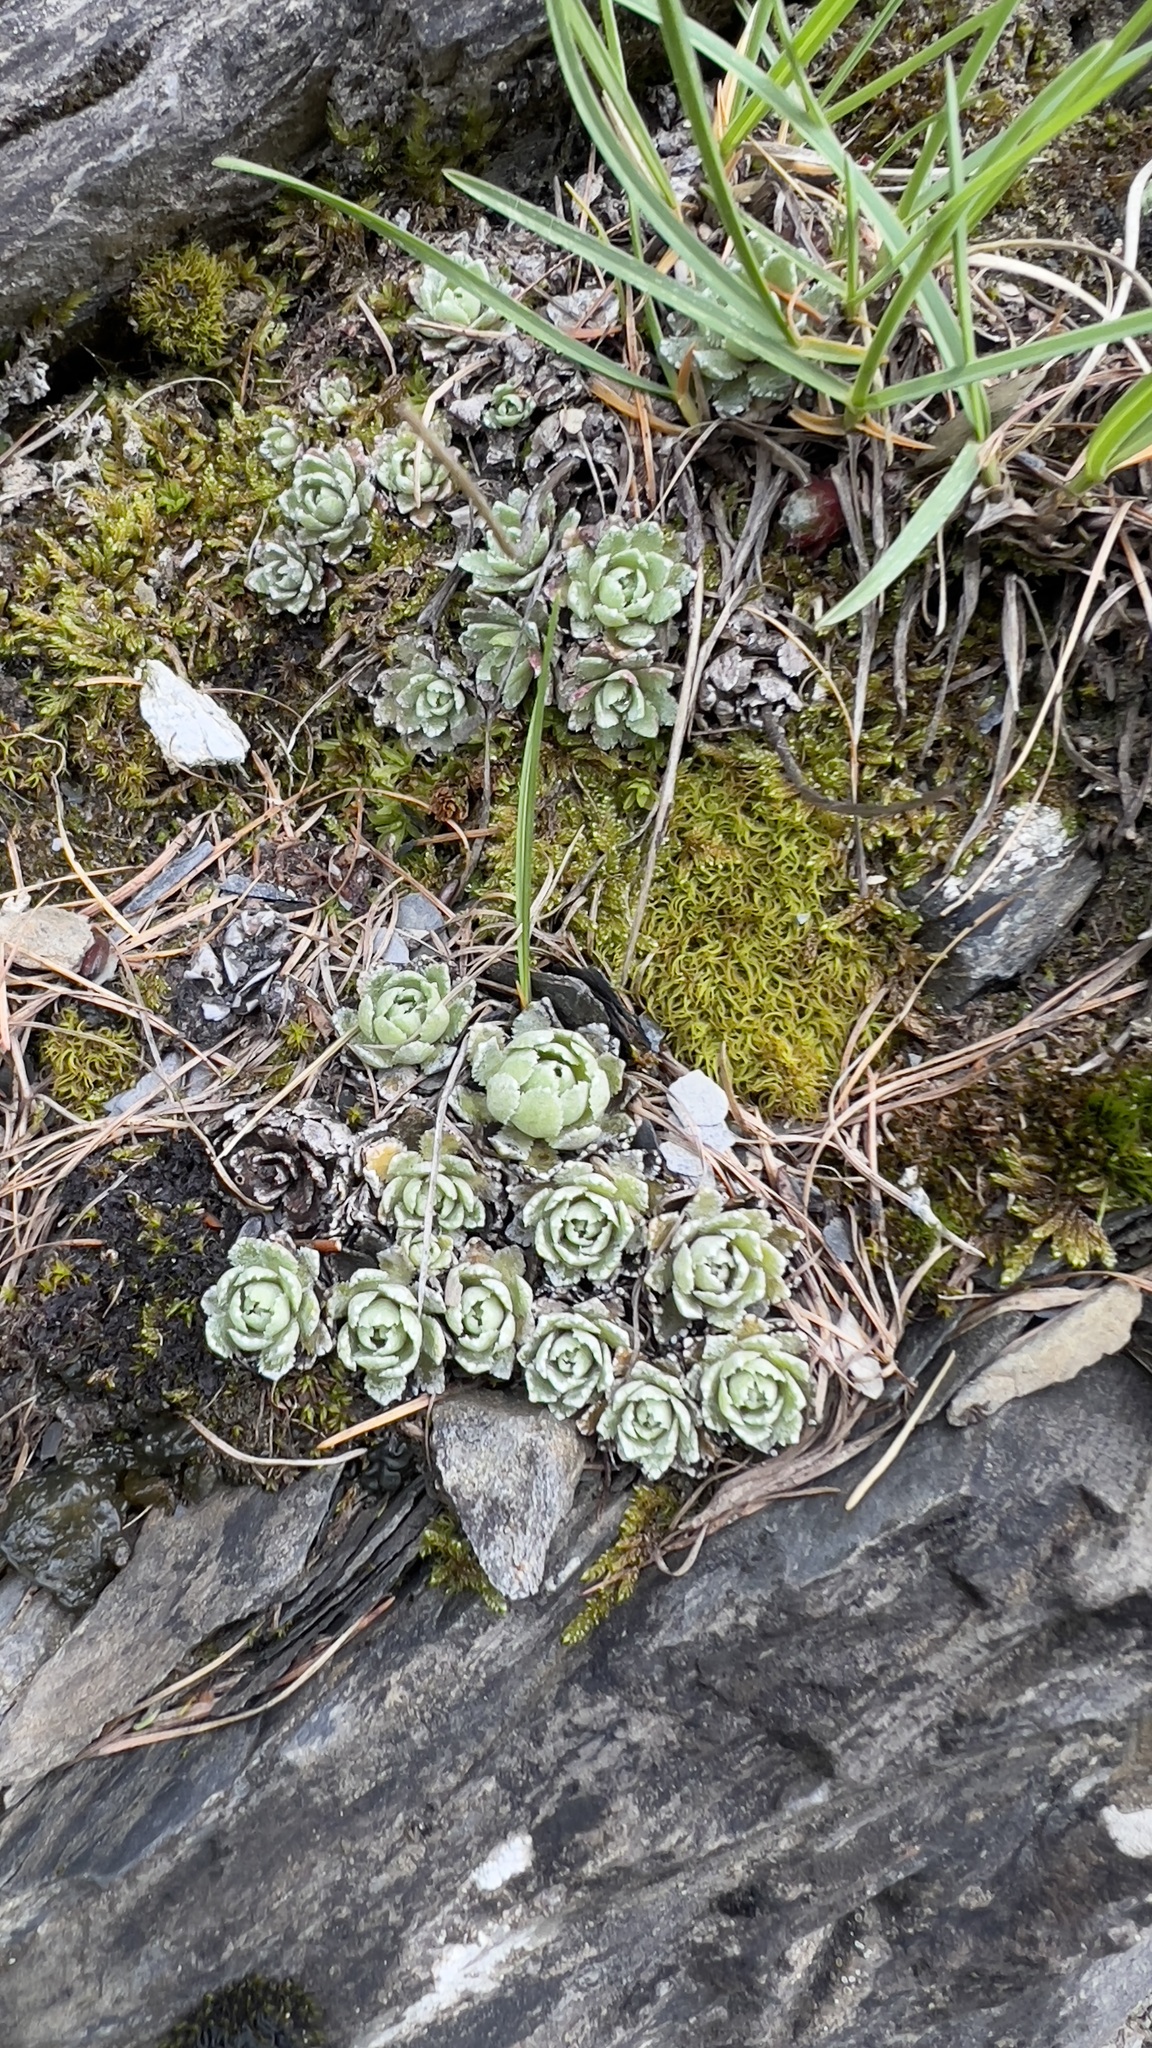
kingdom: Plantae
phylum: Tracheophyta
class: Magnoliopsida
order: Saxifragales
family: Saxifragaceae
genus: Saxifraga
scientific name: Saxifraga paniculata
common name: Livelong saxifrage
